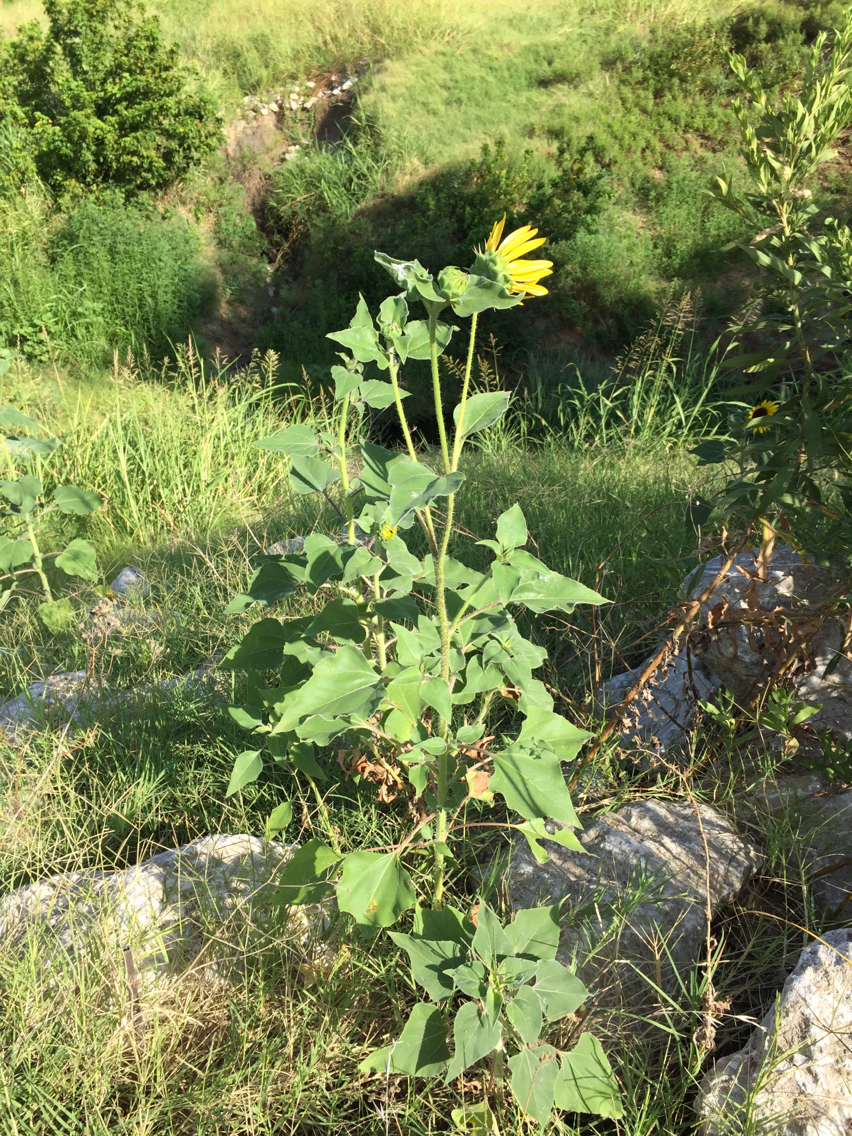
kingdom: Plantae
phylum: Tracheophyta
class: Magnoliopsida
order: Asterales
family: Asteraceae
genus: Helianthus
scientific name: Helianthus annuus
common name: Sunflower
